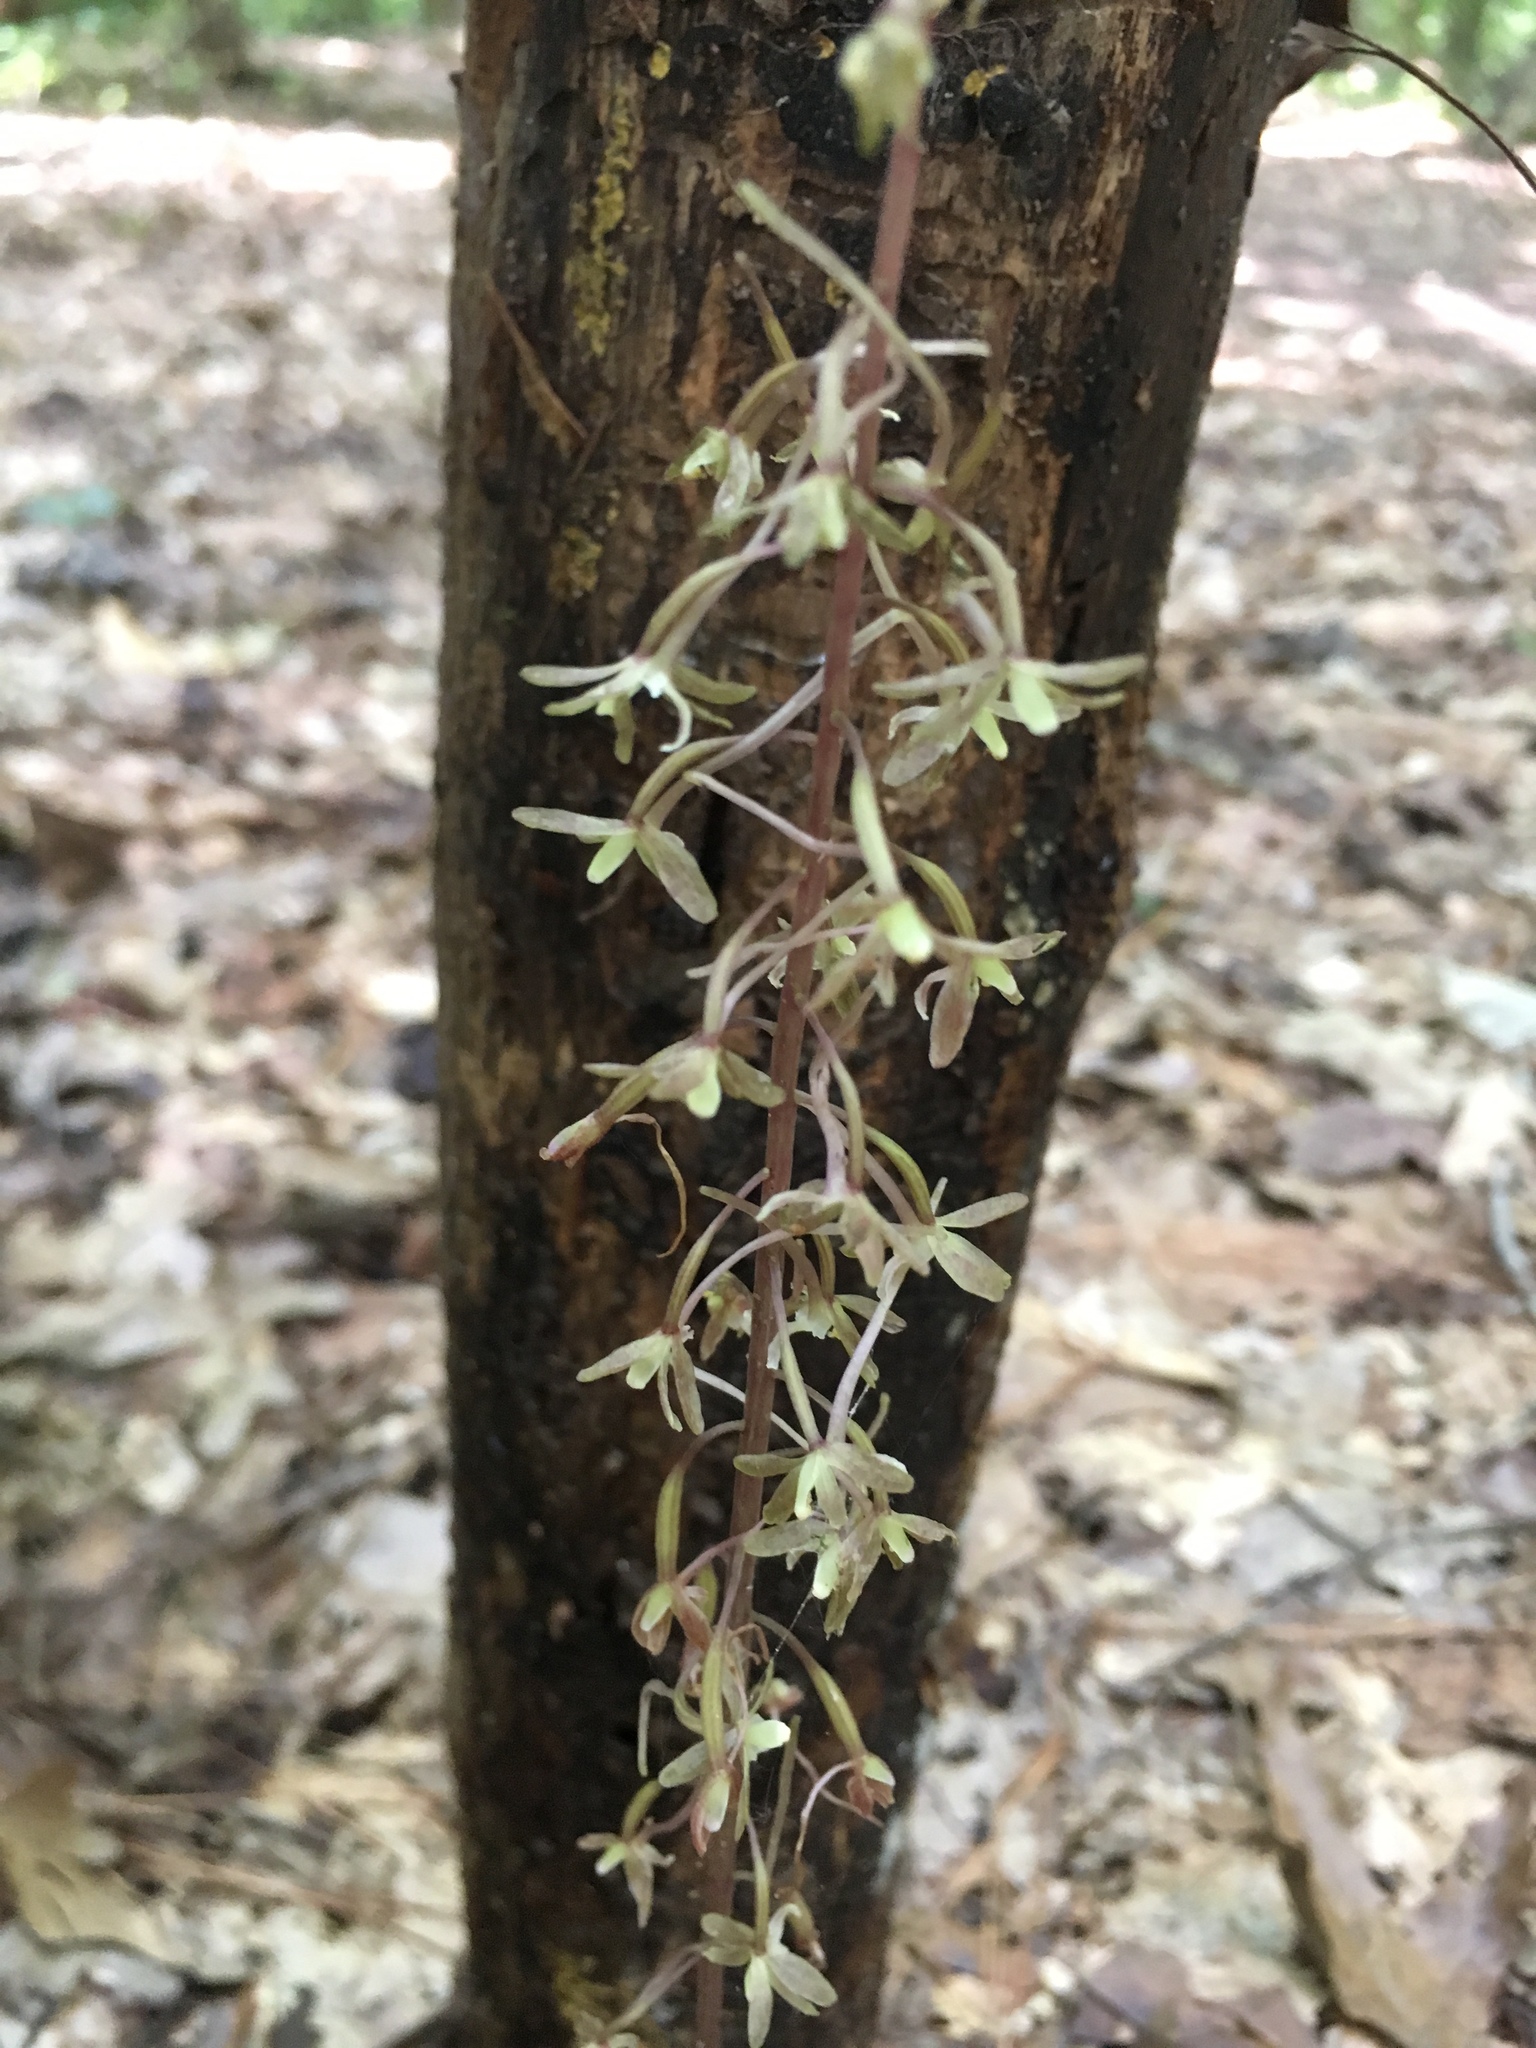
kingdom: Plantae
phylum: Tracheophyta
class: Liliopsida
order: Asparagales
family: Orchidaceae
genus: Tipularia
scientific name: Tipularia discolor
